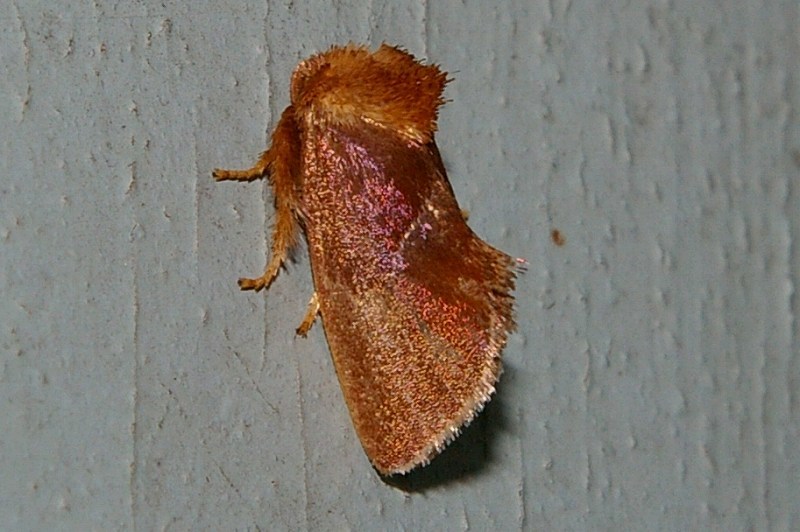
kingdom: Animalia
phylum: Arthropoda
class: Insecta
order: Lepidoptera
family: Limacodidae
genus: Phrixolepia
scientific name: Phrixolepia sericea
